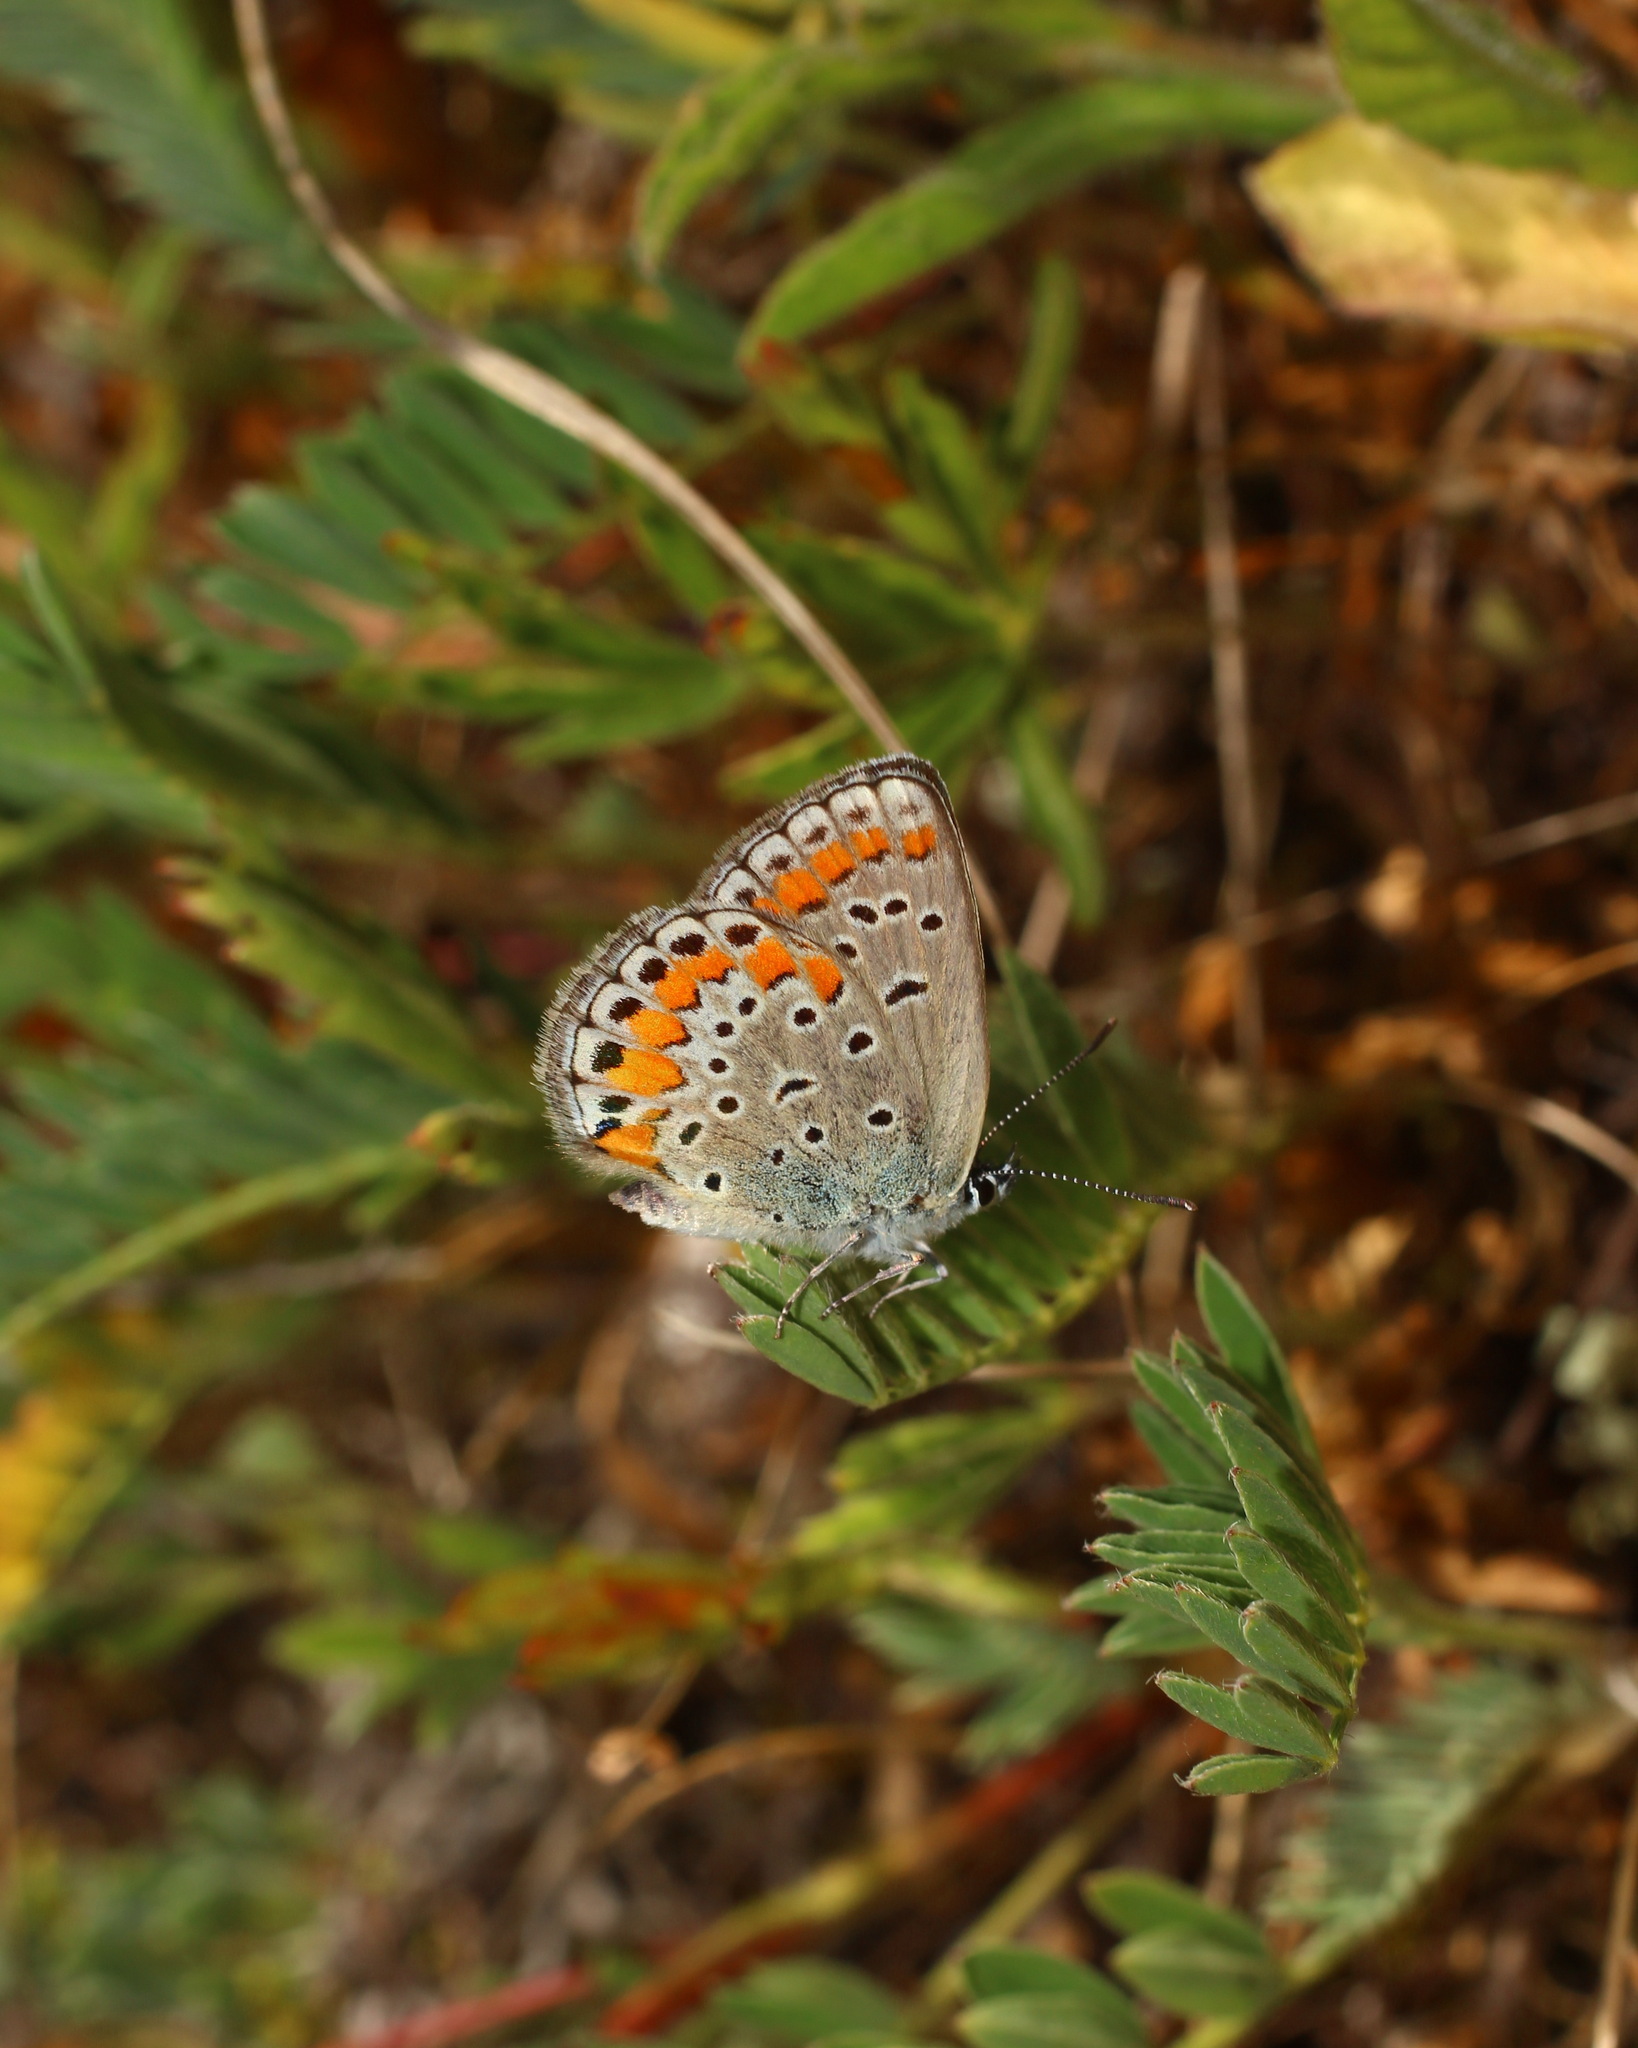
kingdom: Animalia
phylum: Arthropoda
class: Insecta
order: Lepidoptera
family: Lycaenidae
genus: Plebejus
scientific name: Plebejus pylaon
